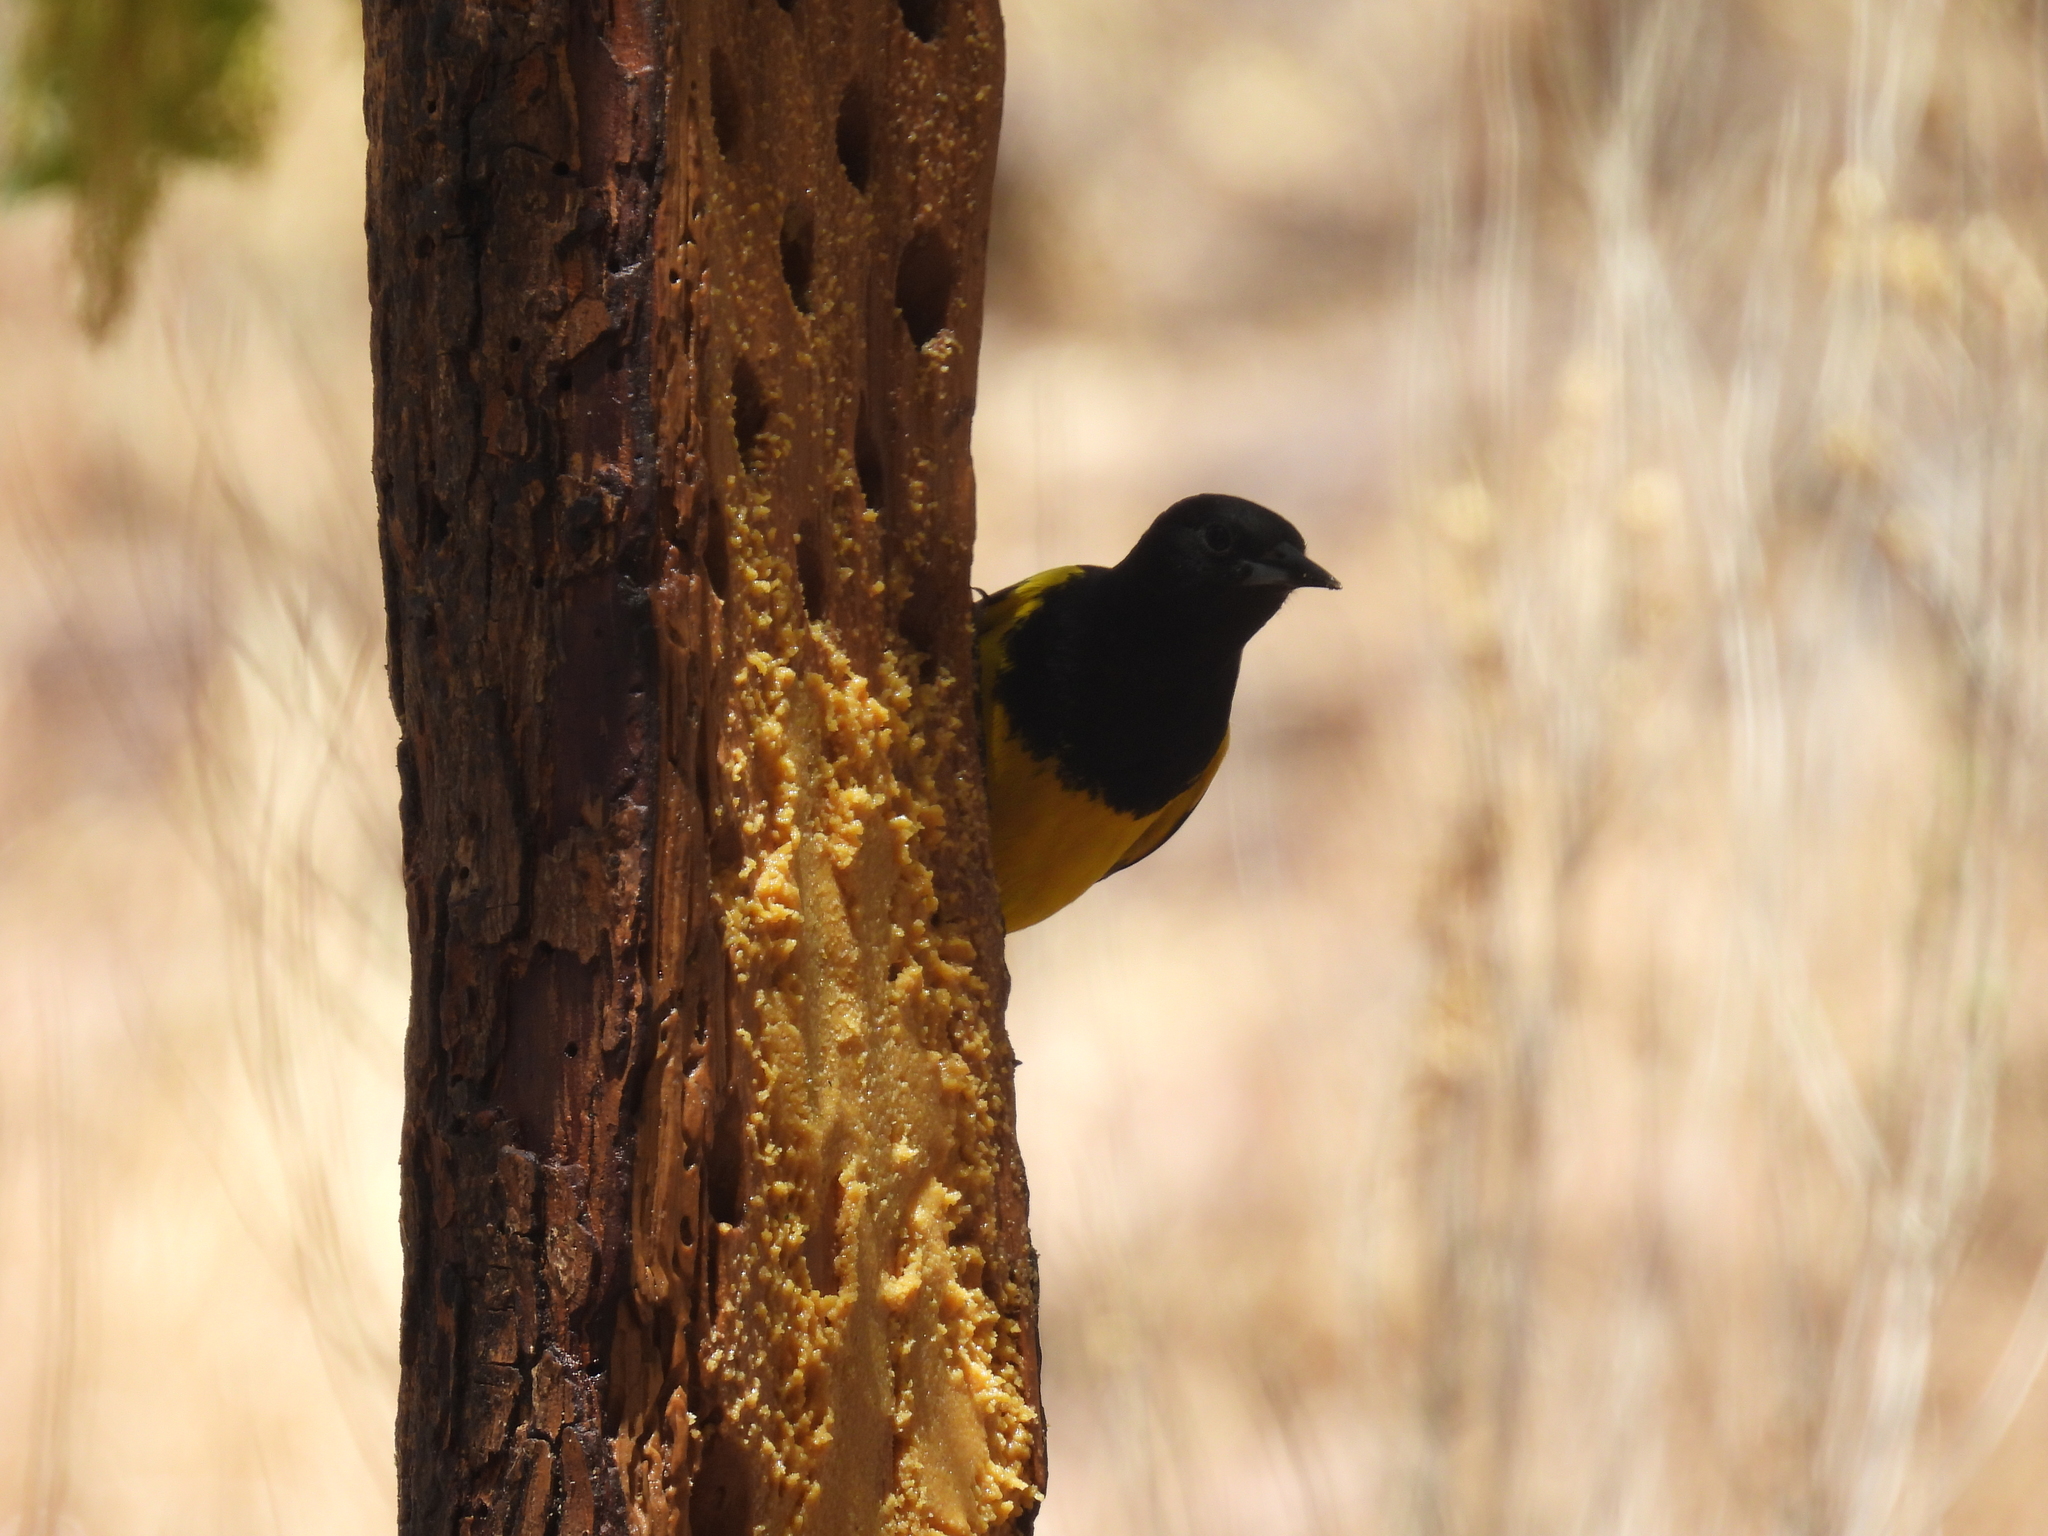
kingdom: Animalia
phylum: Chordata
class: Aves
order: Passeriformes
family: Icteridae
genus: Icterus
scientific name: Icterus parisorum
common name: Scott's oriole
